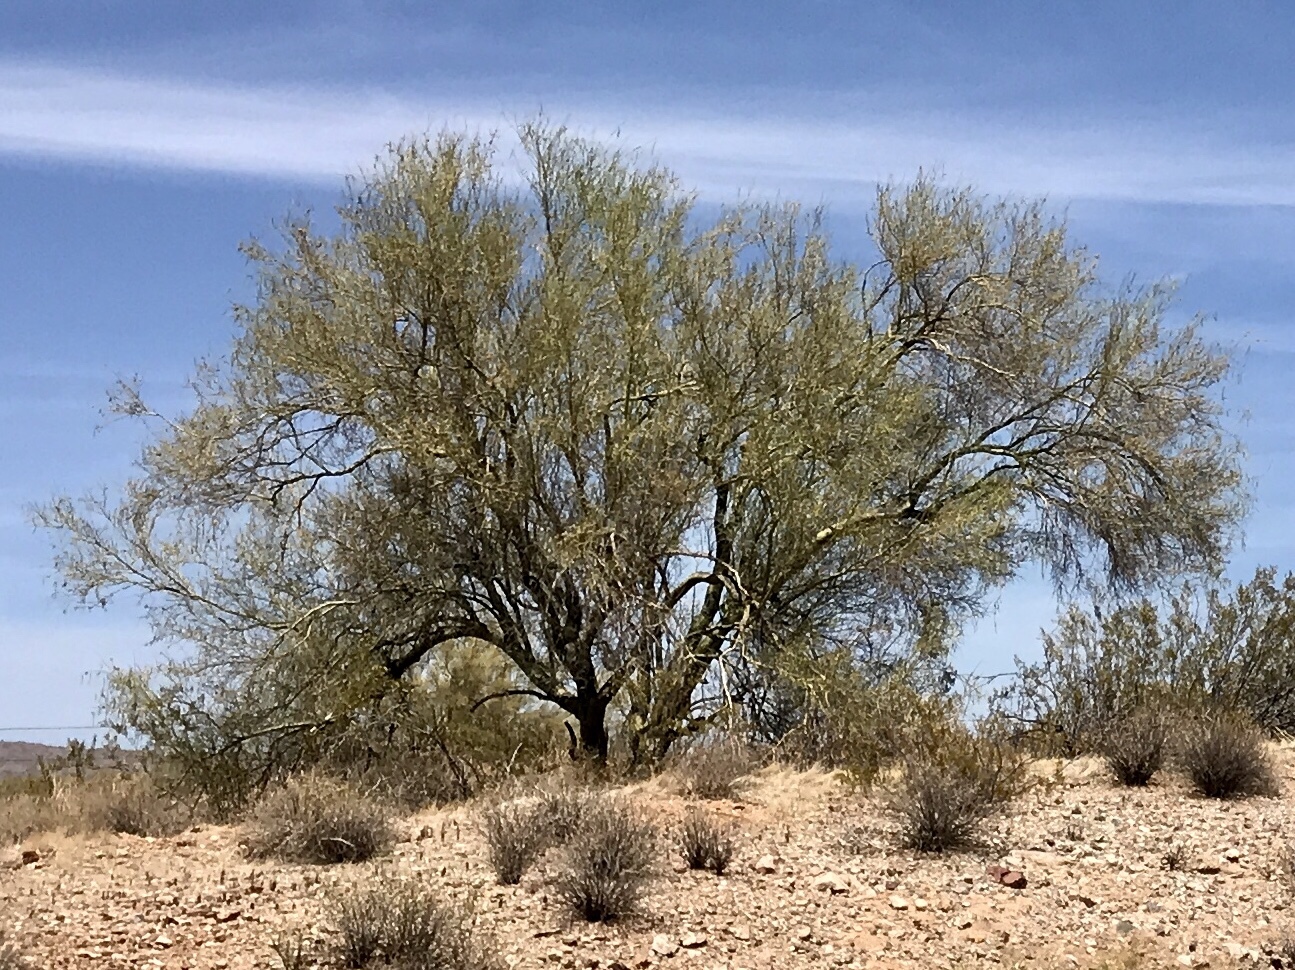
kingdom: Plantae
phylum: Tracheophyta
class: Magnoliopsida
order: Fabales
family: Fabaceae
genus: Parkinsonia
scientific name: Parkinsonia microphylla
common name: Yellow paloverde
